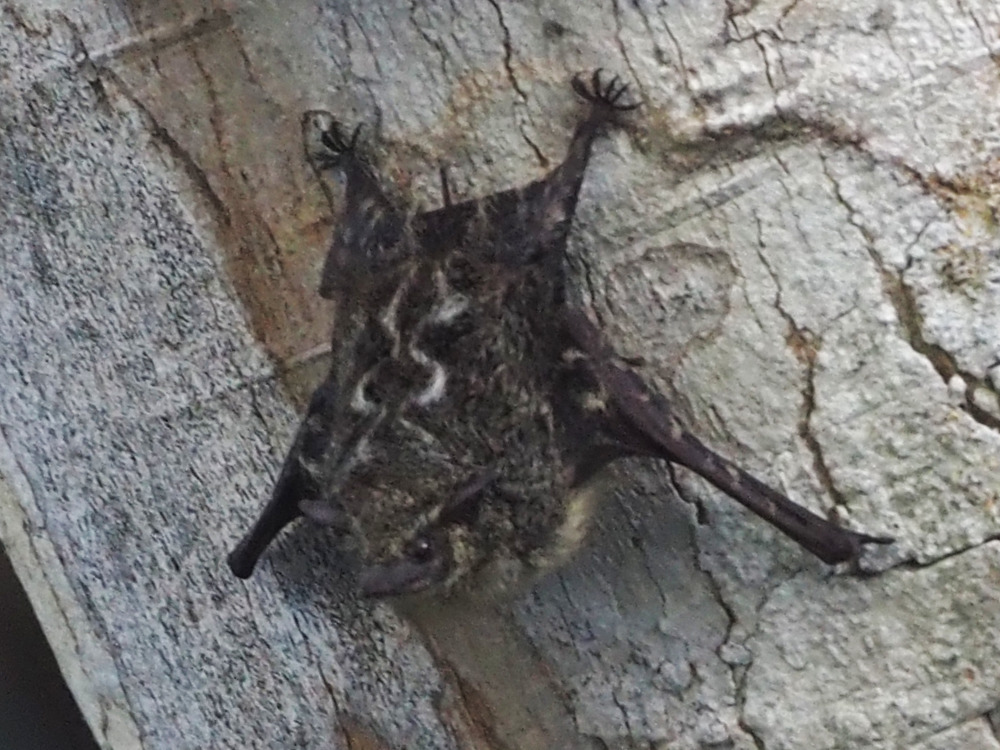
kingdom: Animalia
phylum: Chordata
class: Mammalia
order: Chiroptera
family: Emballonuridae
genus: Rhynchonycteris
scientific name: Rhynchonycteris naso
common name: Proboscis bat
